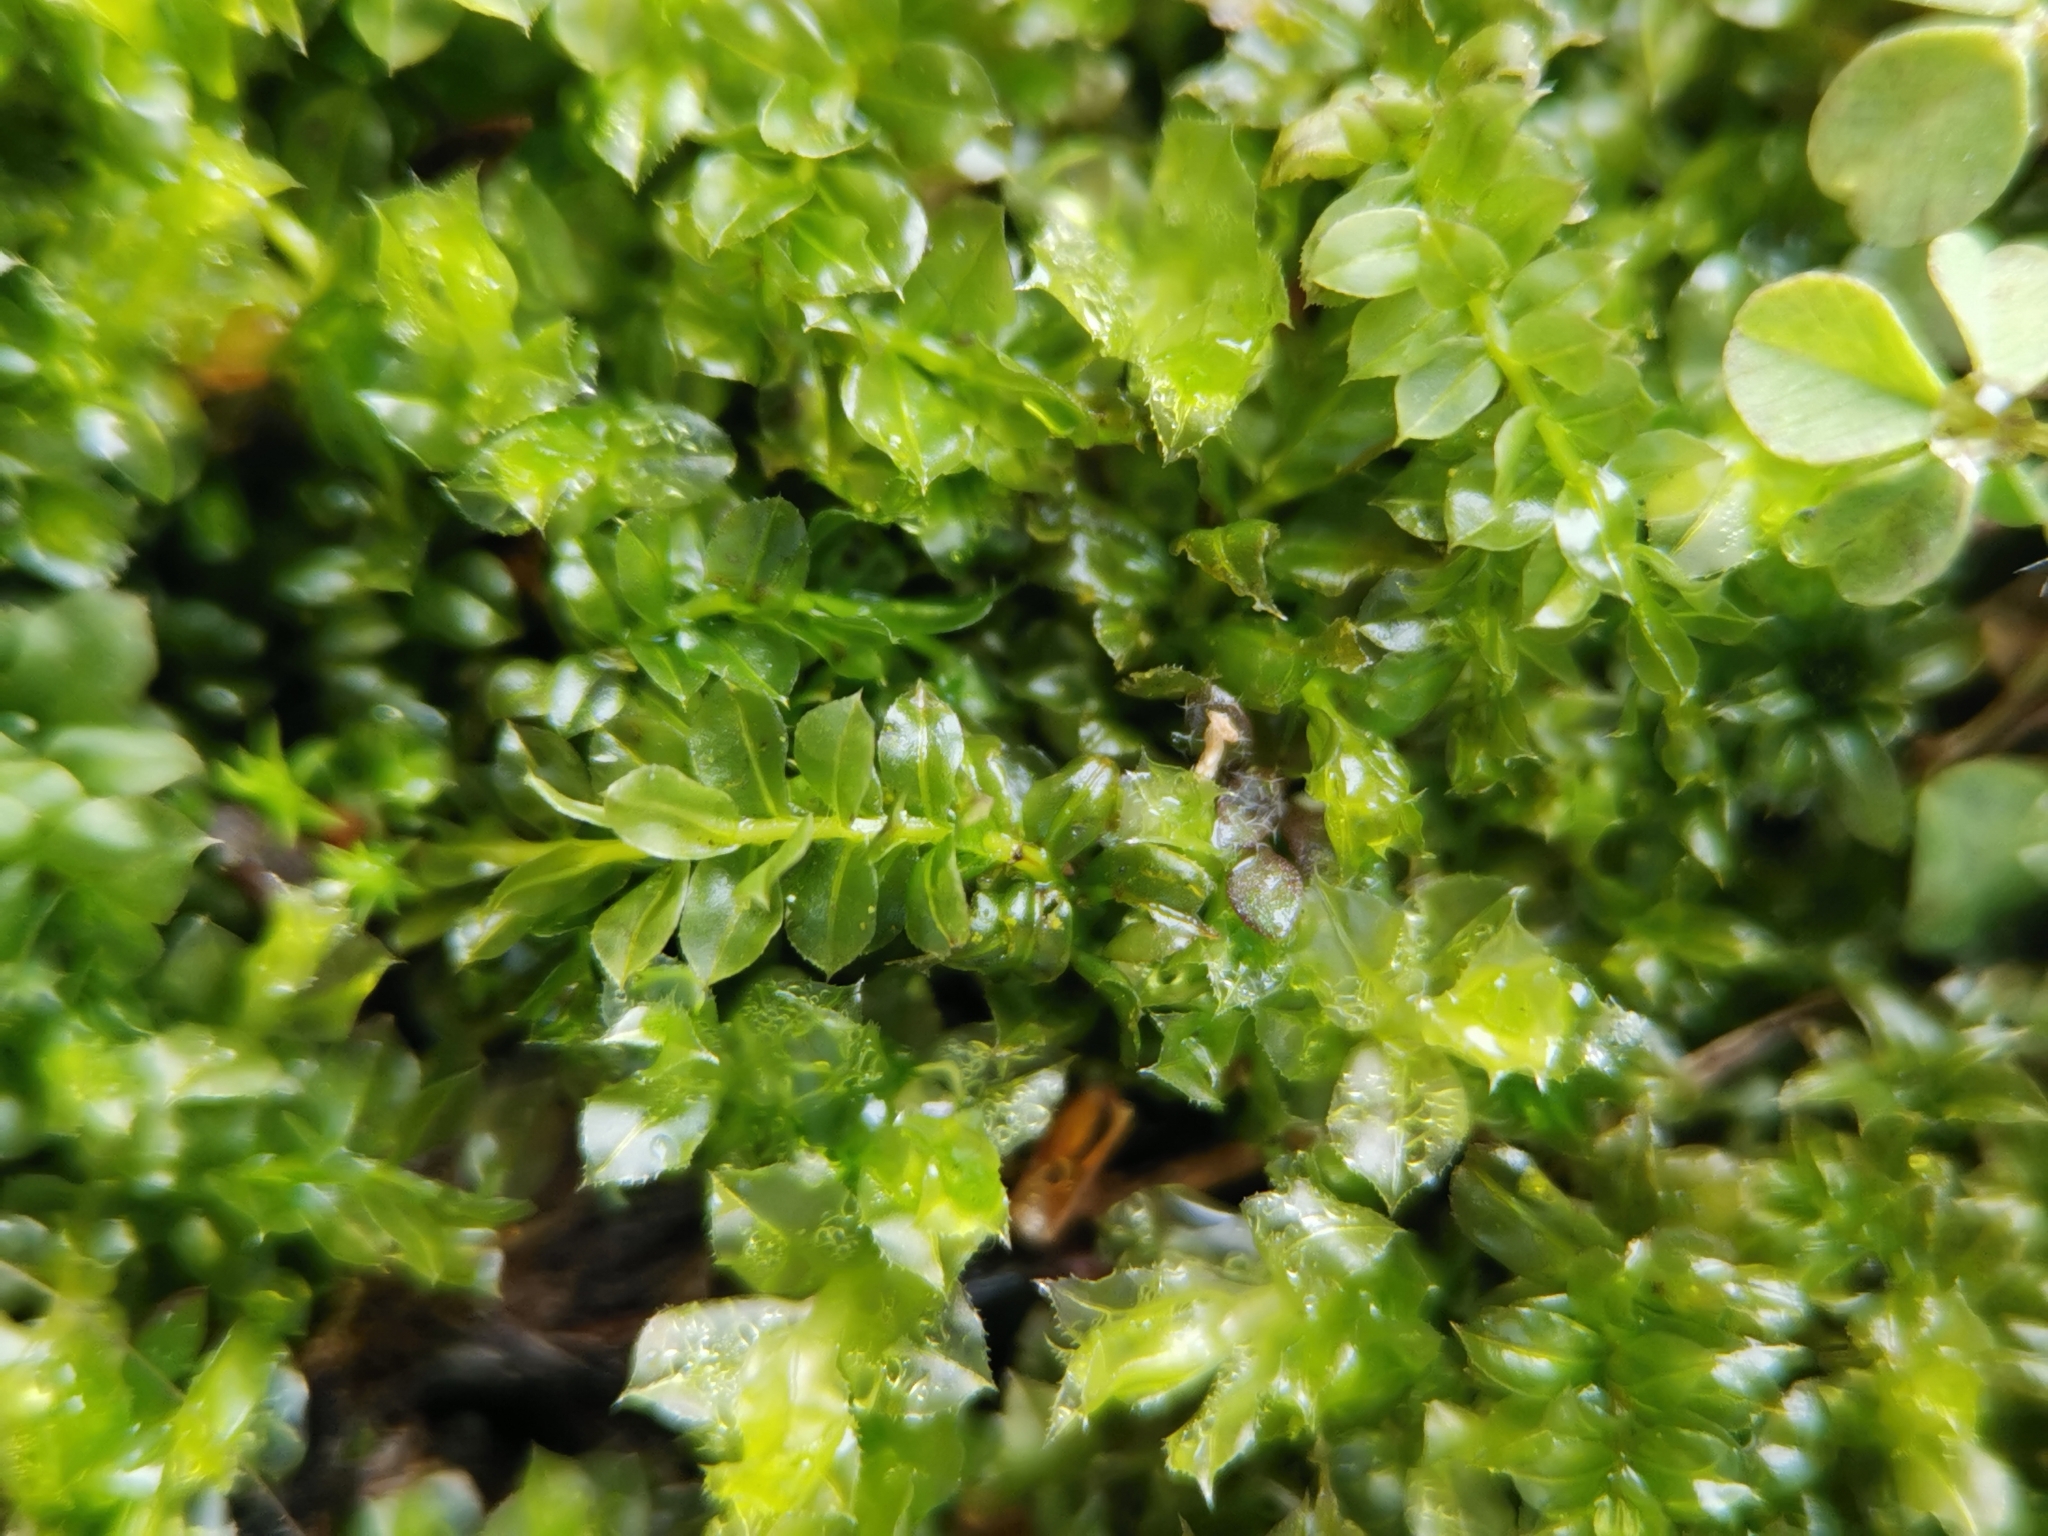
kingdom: Plantae
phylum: Bryophyta
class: Bryopsida
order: Bryales
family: Mniaceae
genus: Plagiomnium
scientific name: Plagiomnium cuspidatum
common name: Woodsy leafy moss
